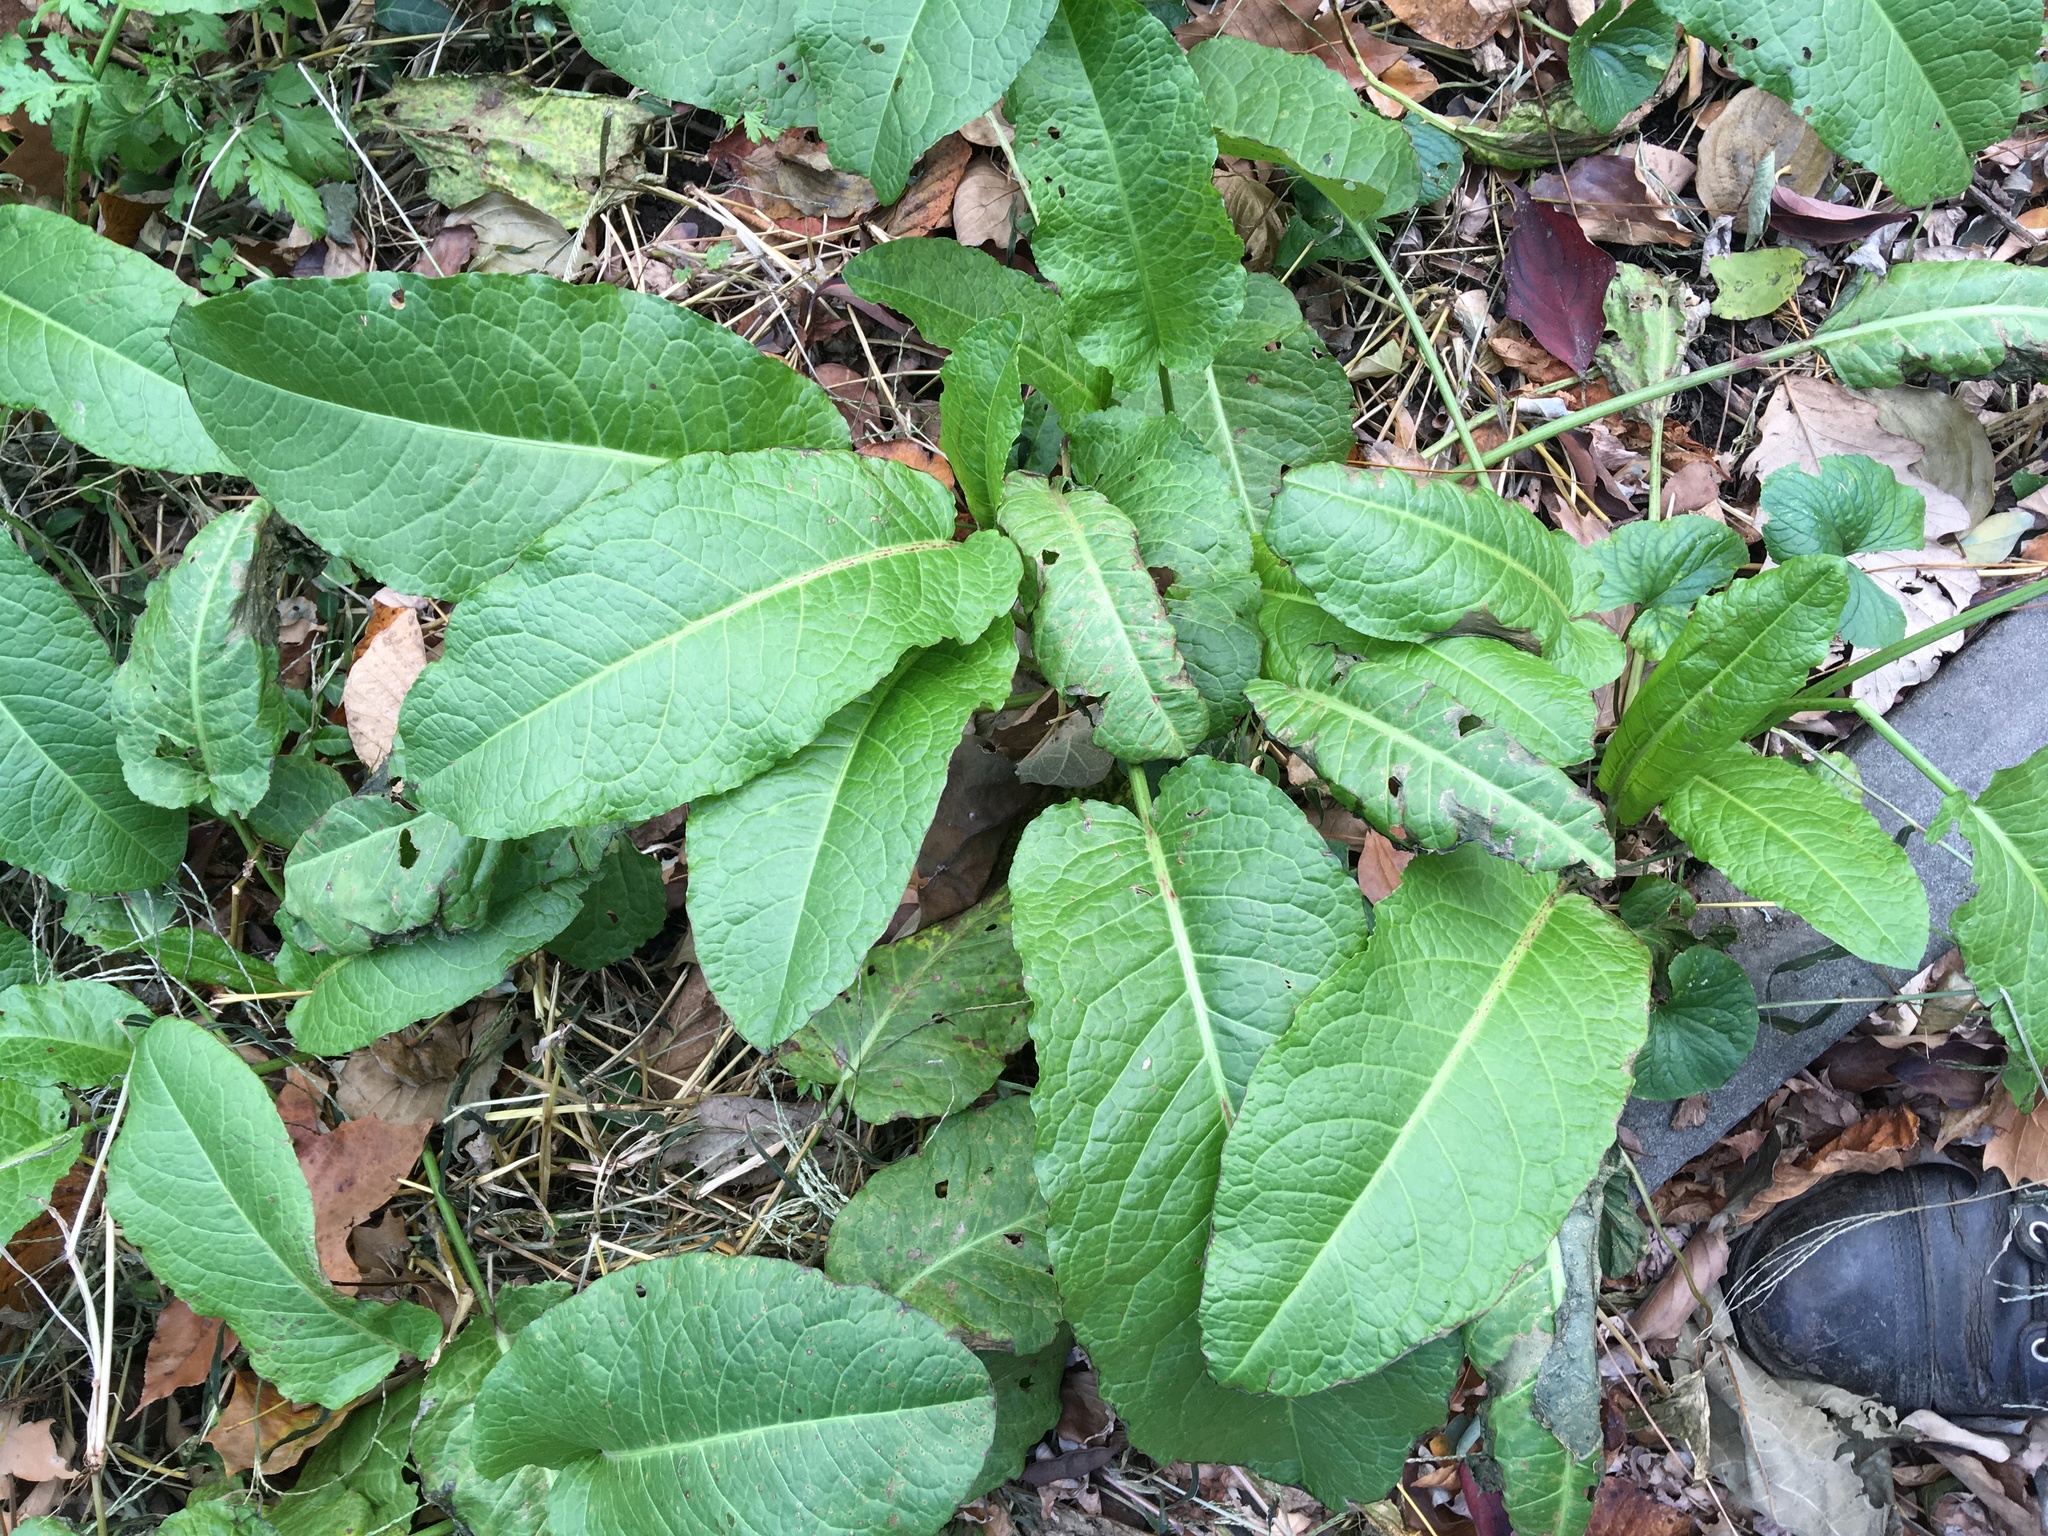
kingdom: Plantae
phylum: Tracheophyta
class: Magnoliopsida
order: Caryophyllales
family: Polygonaceae
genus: Rumex
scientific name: Rumex obtusifolius
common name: Bitter dock
